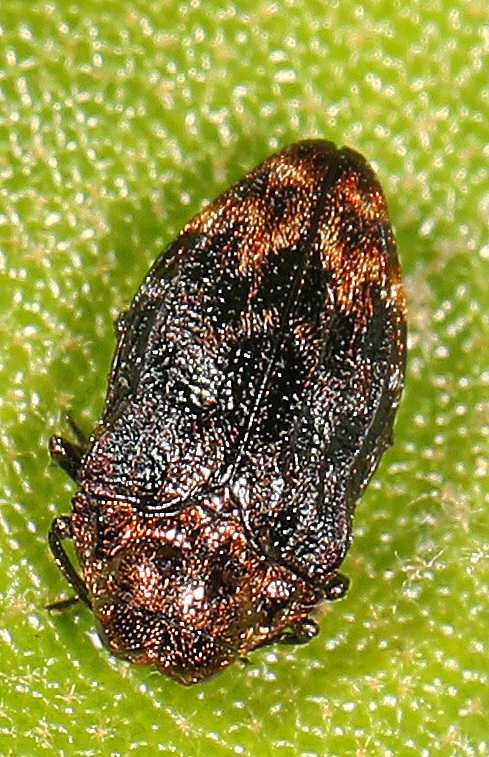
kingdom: Animalia
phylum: Arthropoda
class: Insecta
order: Coleoptera
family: Buprestidae
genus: Brachys
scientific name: Brachys aerosus
